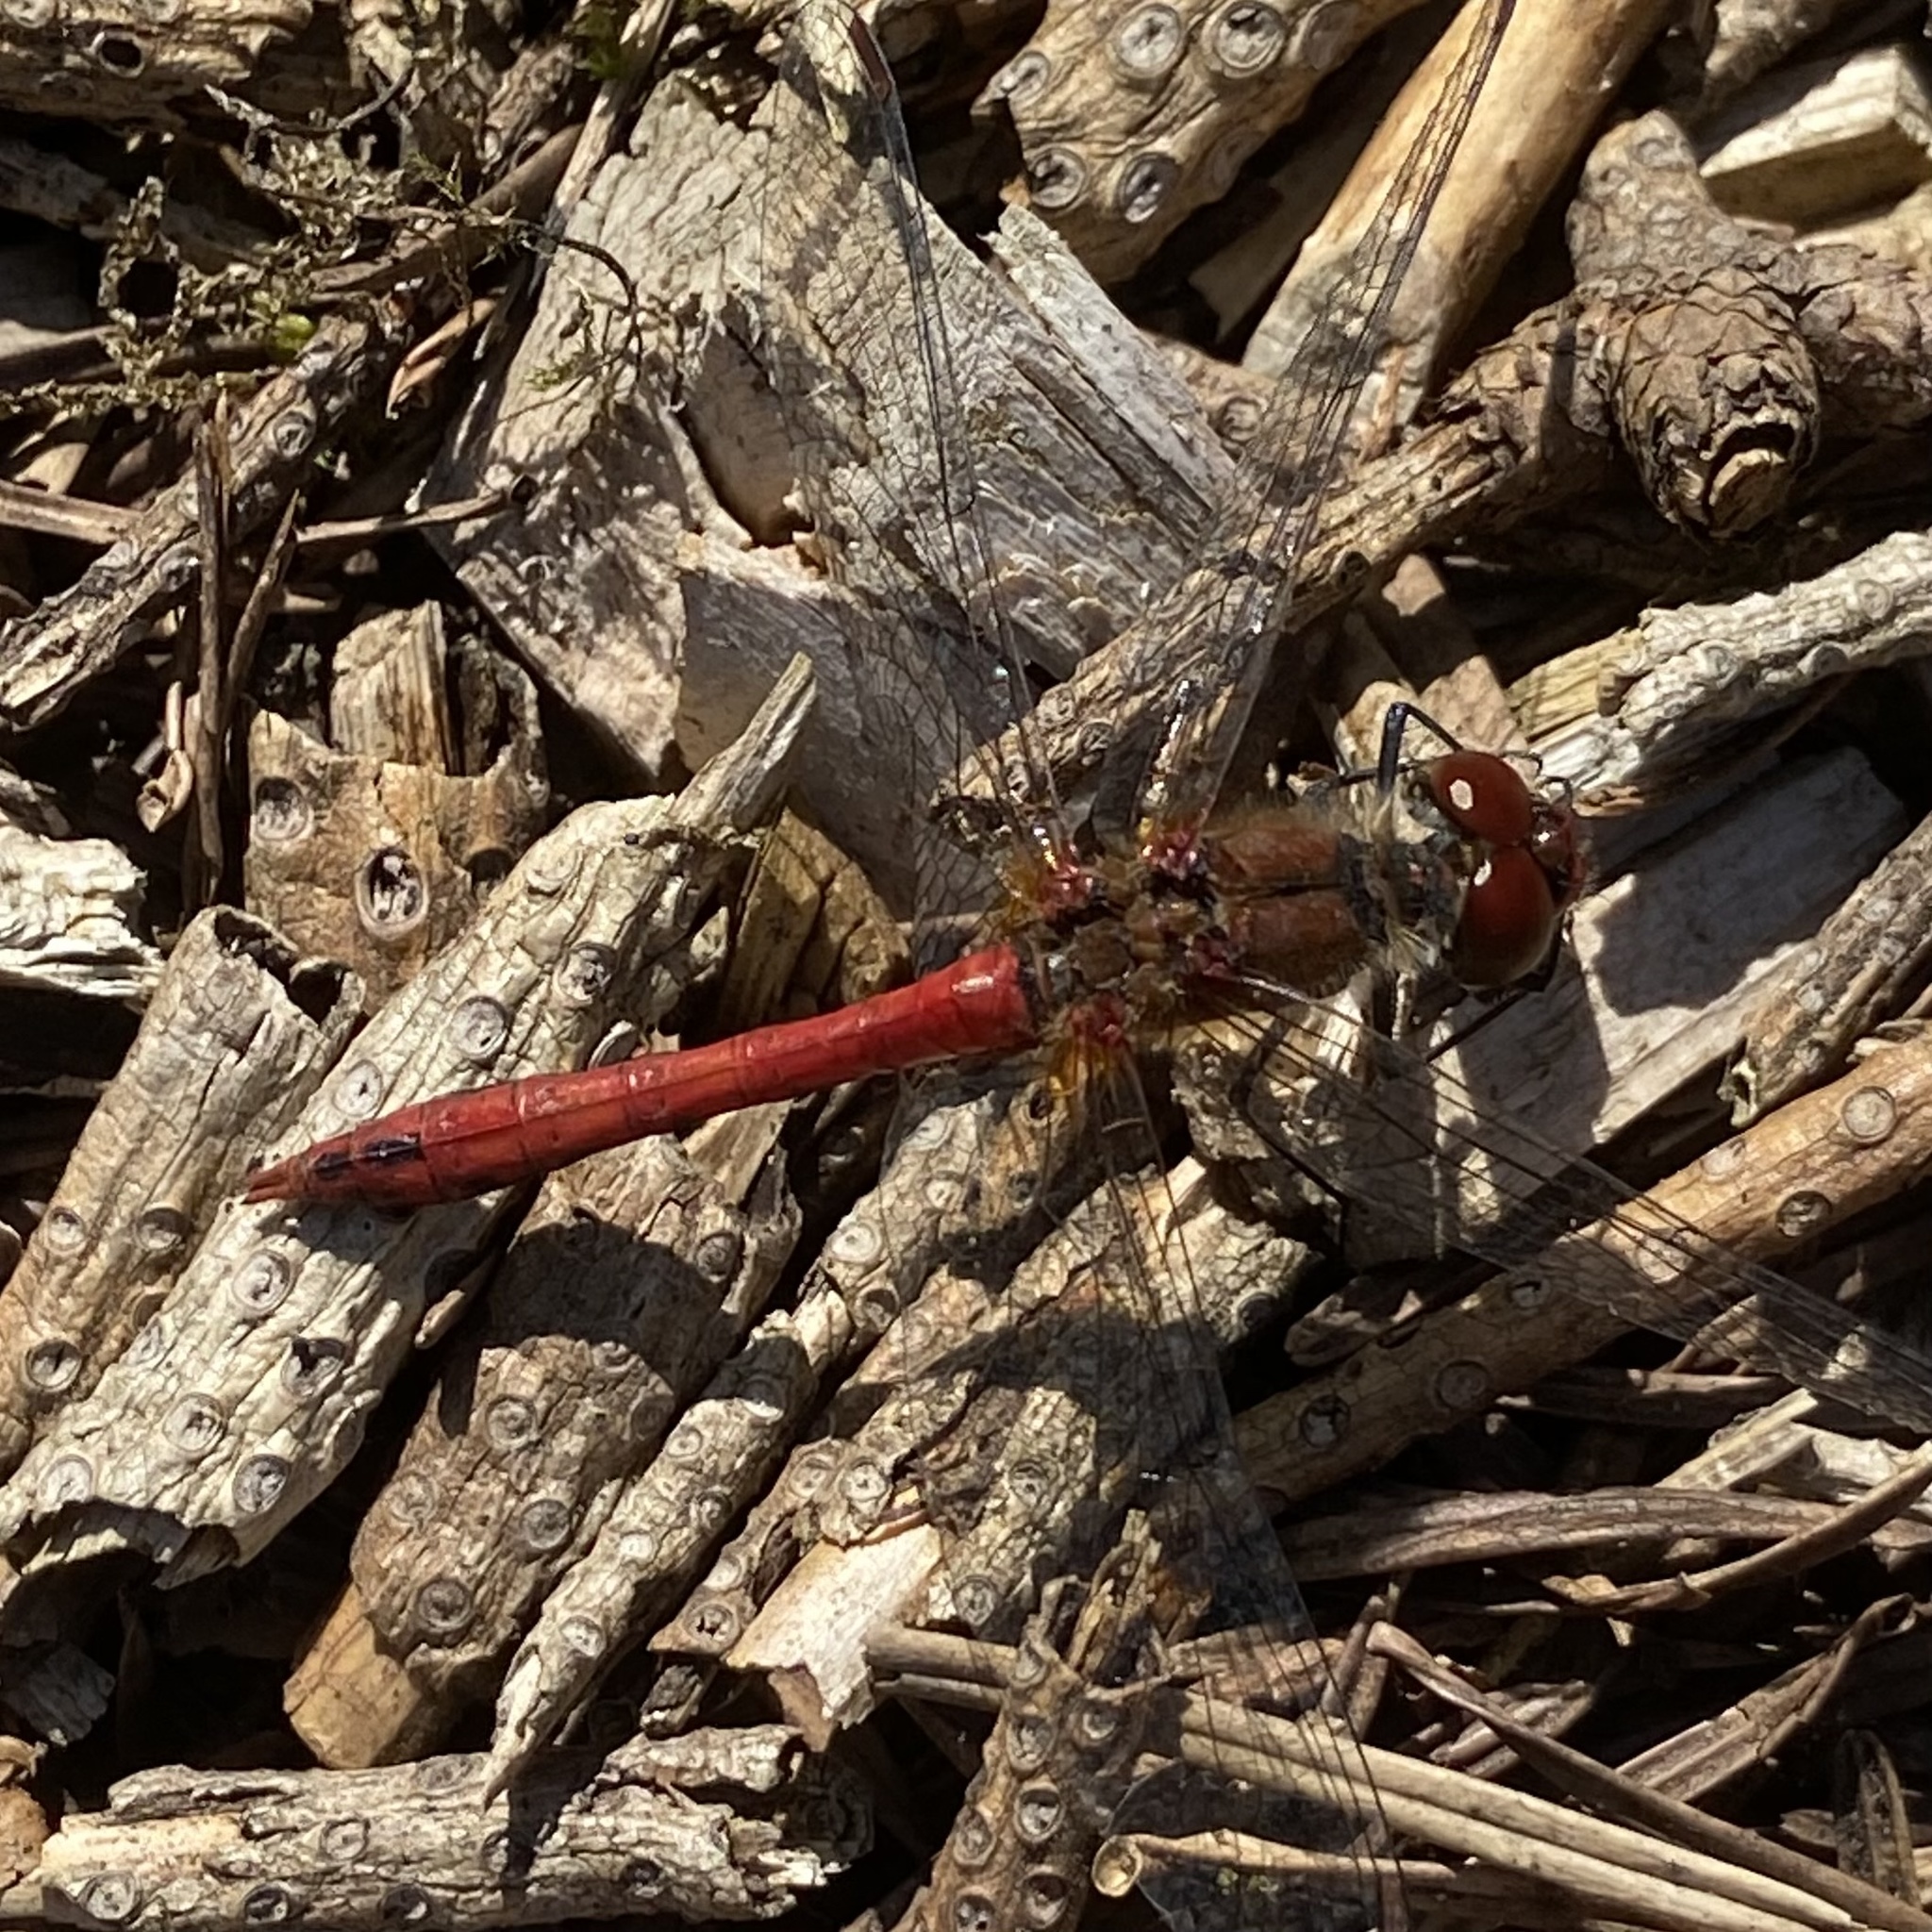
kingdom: Animalia
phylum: Arthropoda
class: Insecta
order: Odonata
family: Libellulidae
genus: Sympetrum
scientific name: Sympetrum sanguineum
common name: Ruddy darter
